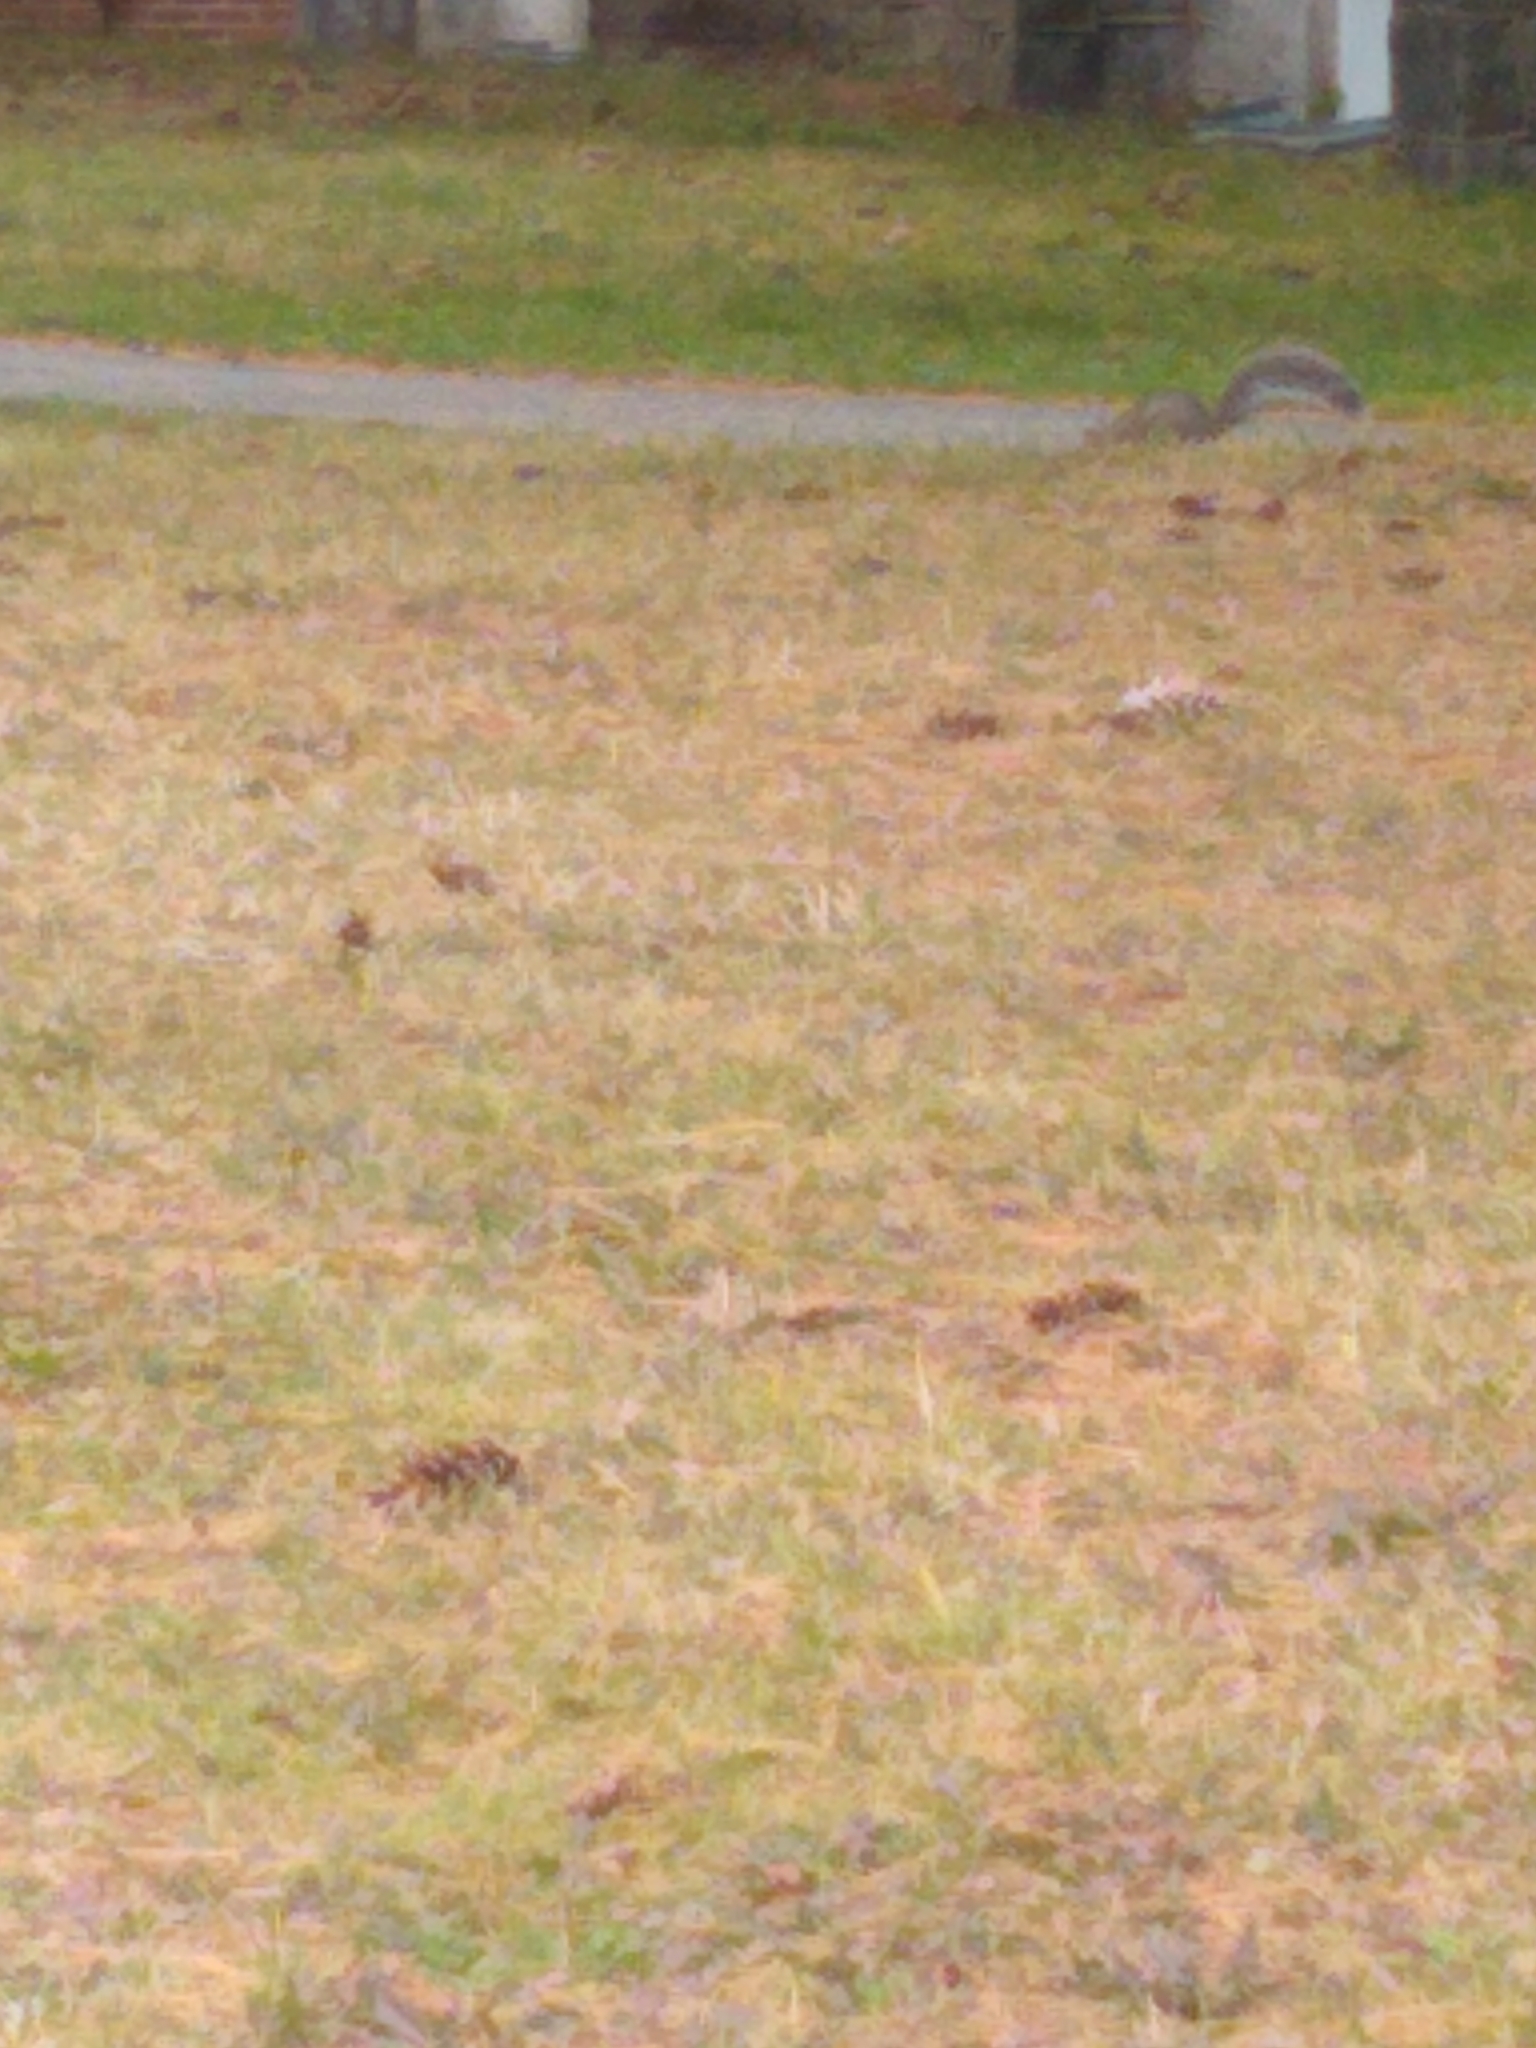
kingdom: Animalia
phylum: Chordata
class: Mammalia
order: Rodentia
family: Sciuridae
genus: Sciurus
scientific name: Sciurus carolinensis
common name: Eastern gray squirrel
